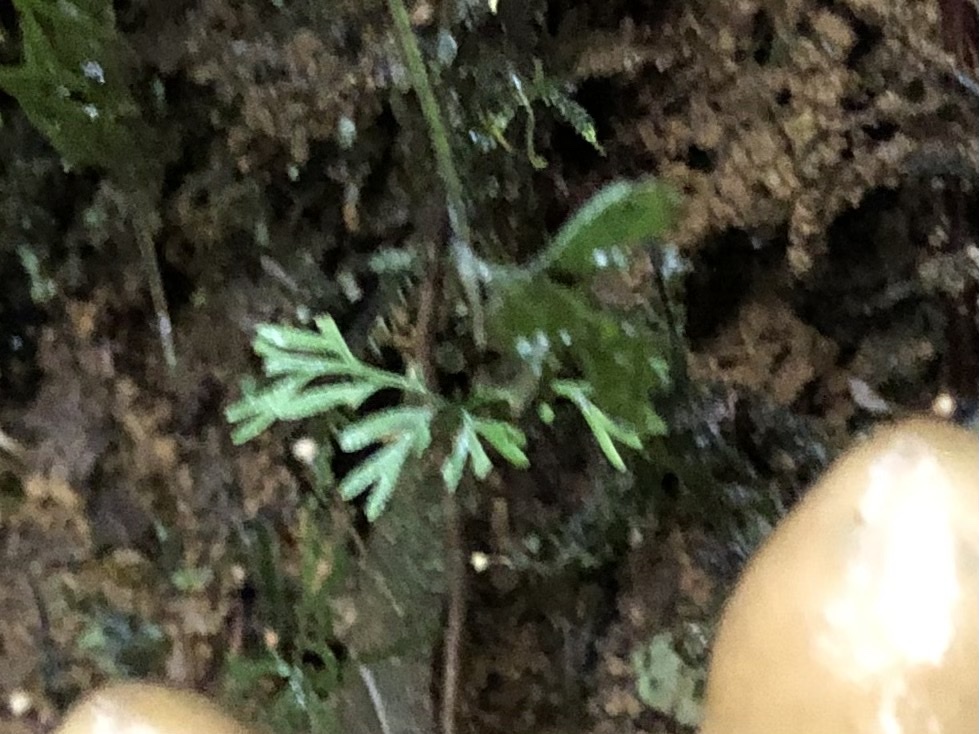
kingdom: Plantae
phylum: Tracheophyta
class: Polypodiopsida
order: Polypodiales
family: Dryopteridaceae
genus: Elaphoglossum
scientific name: Elaphoglossum peltatum
